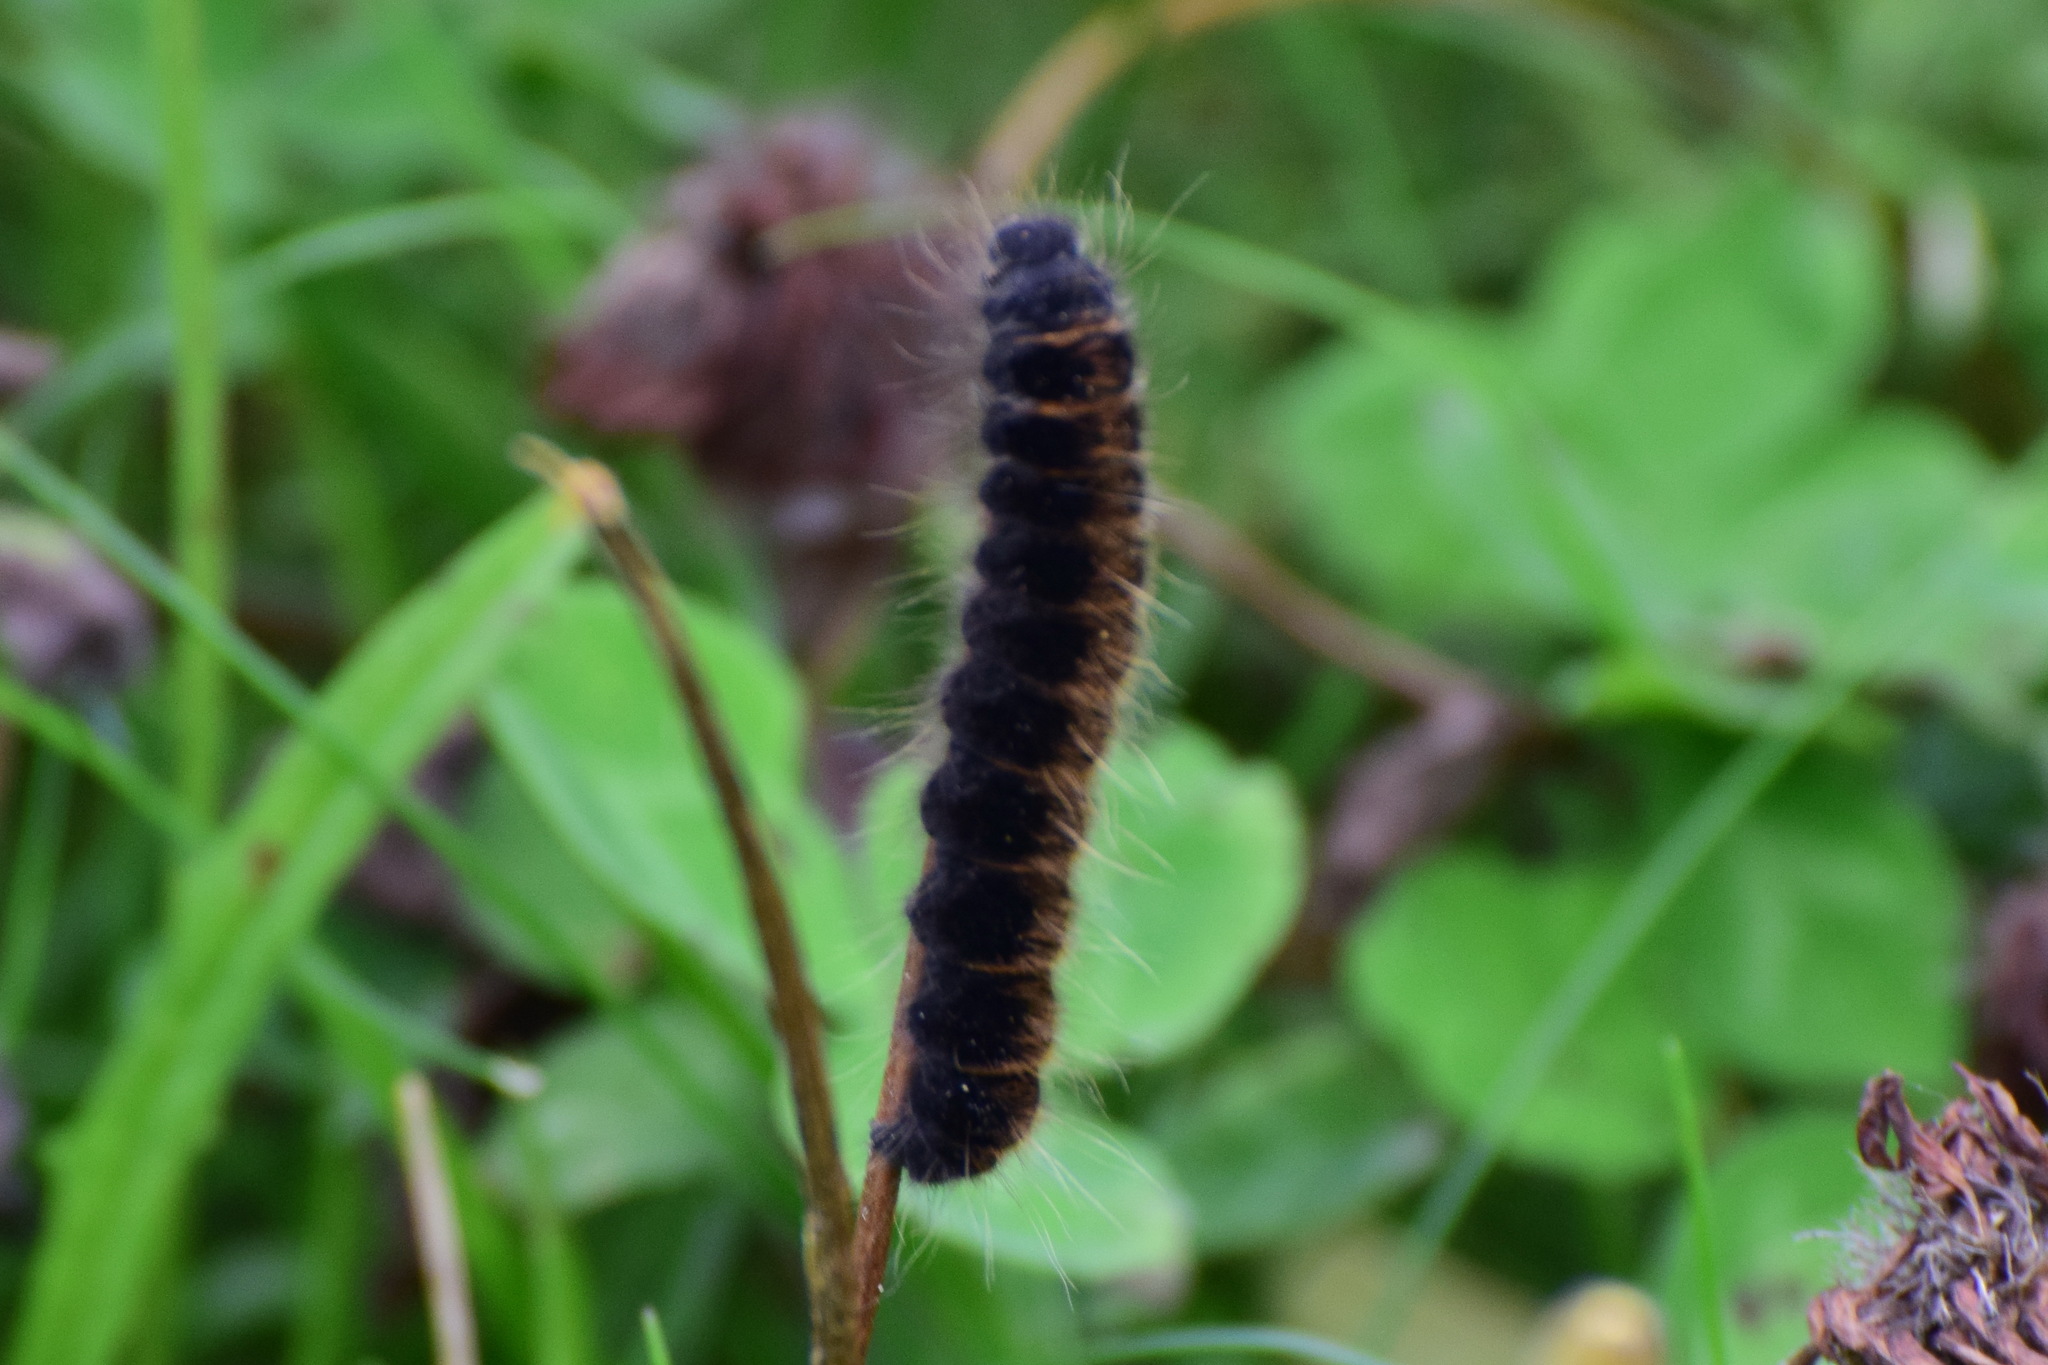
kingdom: Animalia
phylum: Arthropoda
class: Insecta
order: Lepidoptera
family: Lasiocampidae
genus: Macrothylacia
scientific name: Macrothylacia rubi
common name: Fox moth
